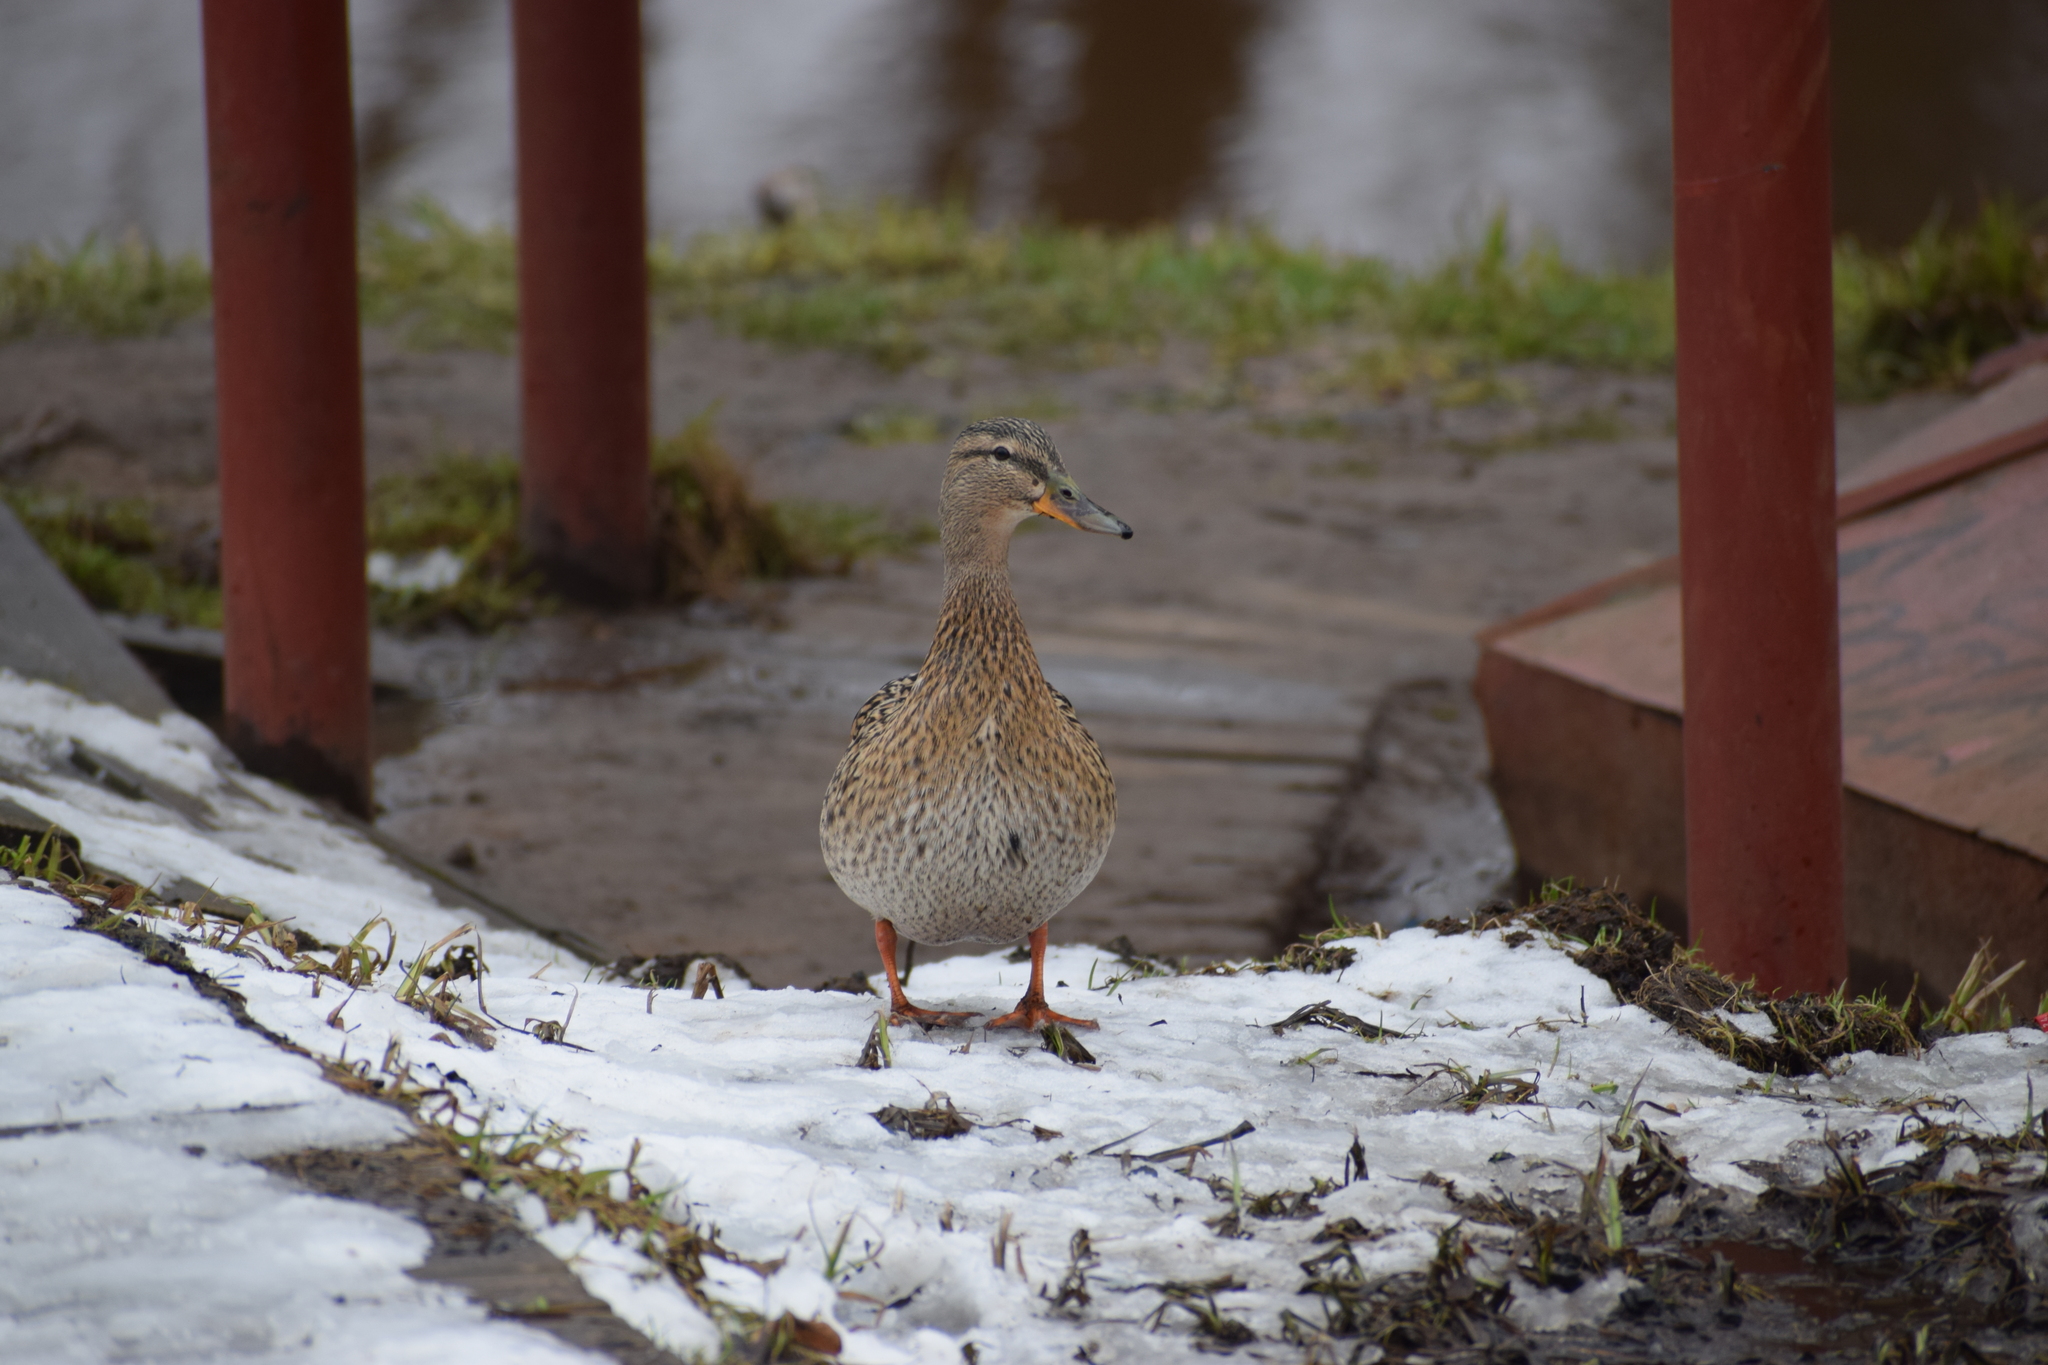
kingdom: Animalia
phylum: Chordata
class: Aves
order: Anseriformes
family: Anatidae
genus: Anas
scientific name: Anas platyrhynchos
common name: Mallard
